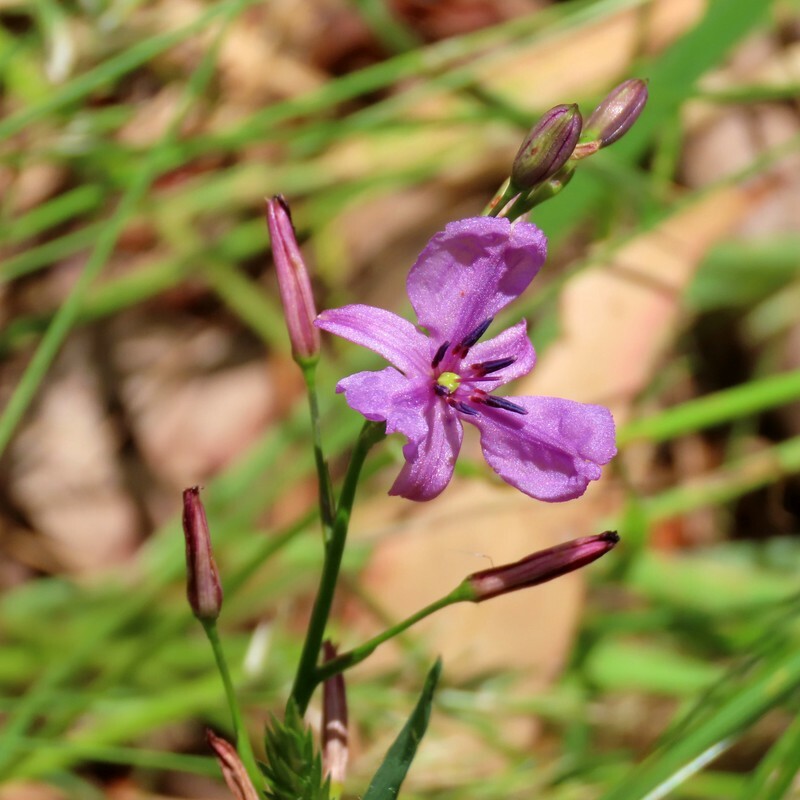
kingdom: Plantae
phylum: Tracheophyta
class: Liliopsida
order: Asparagales
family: Asparagaceae
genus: Arthropodium
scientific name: Arthropodium strictum
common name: Chocolate-lily
